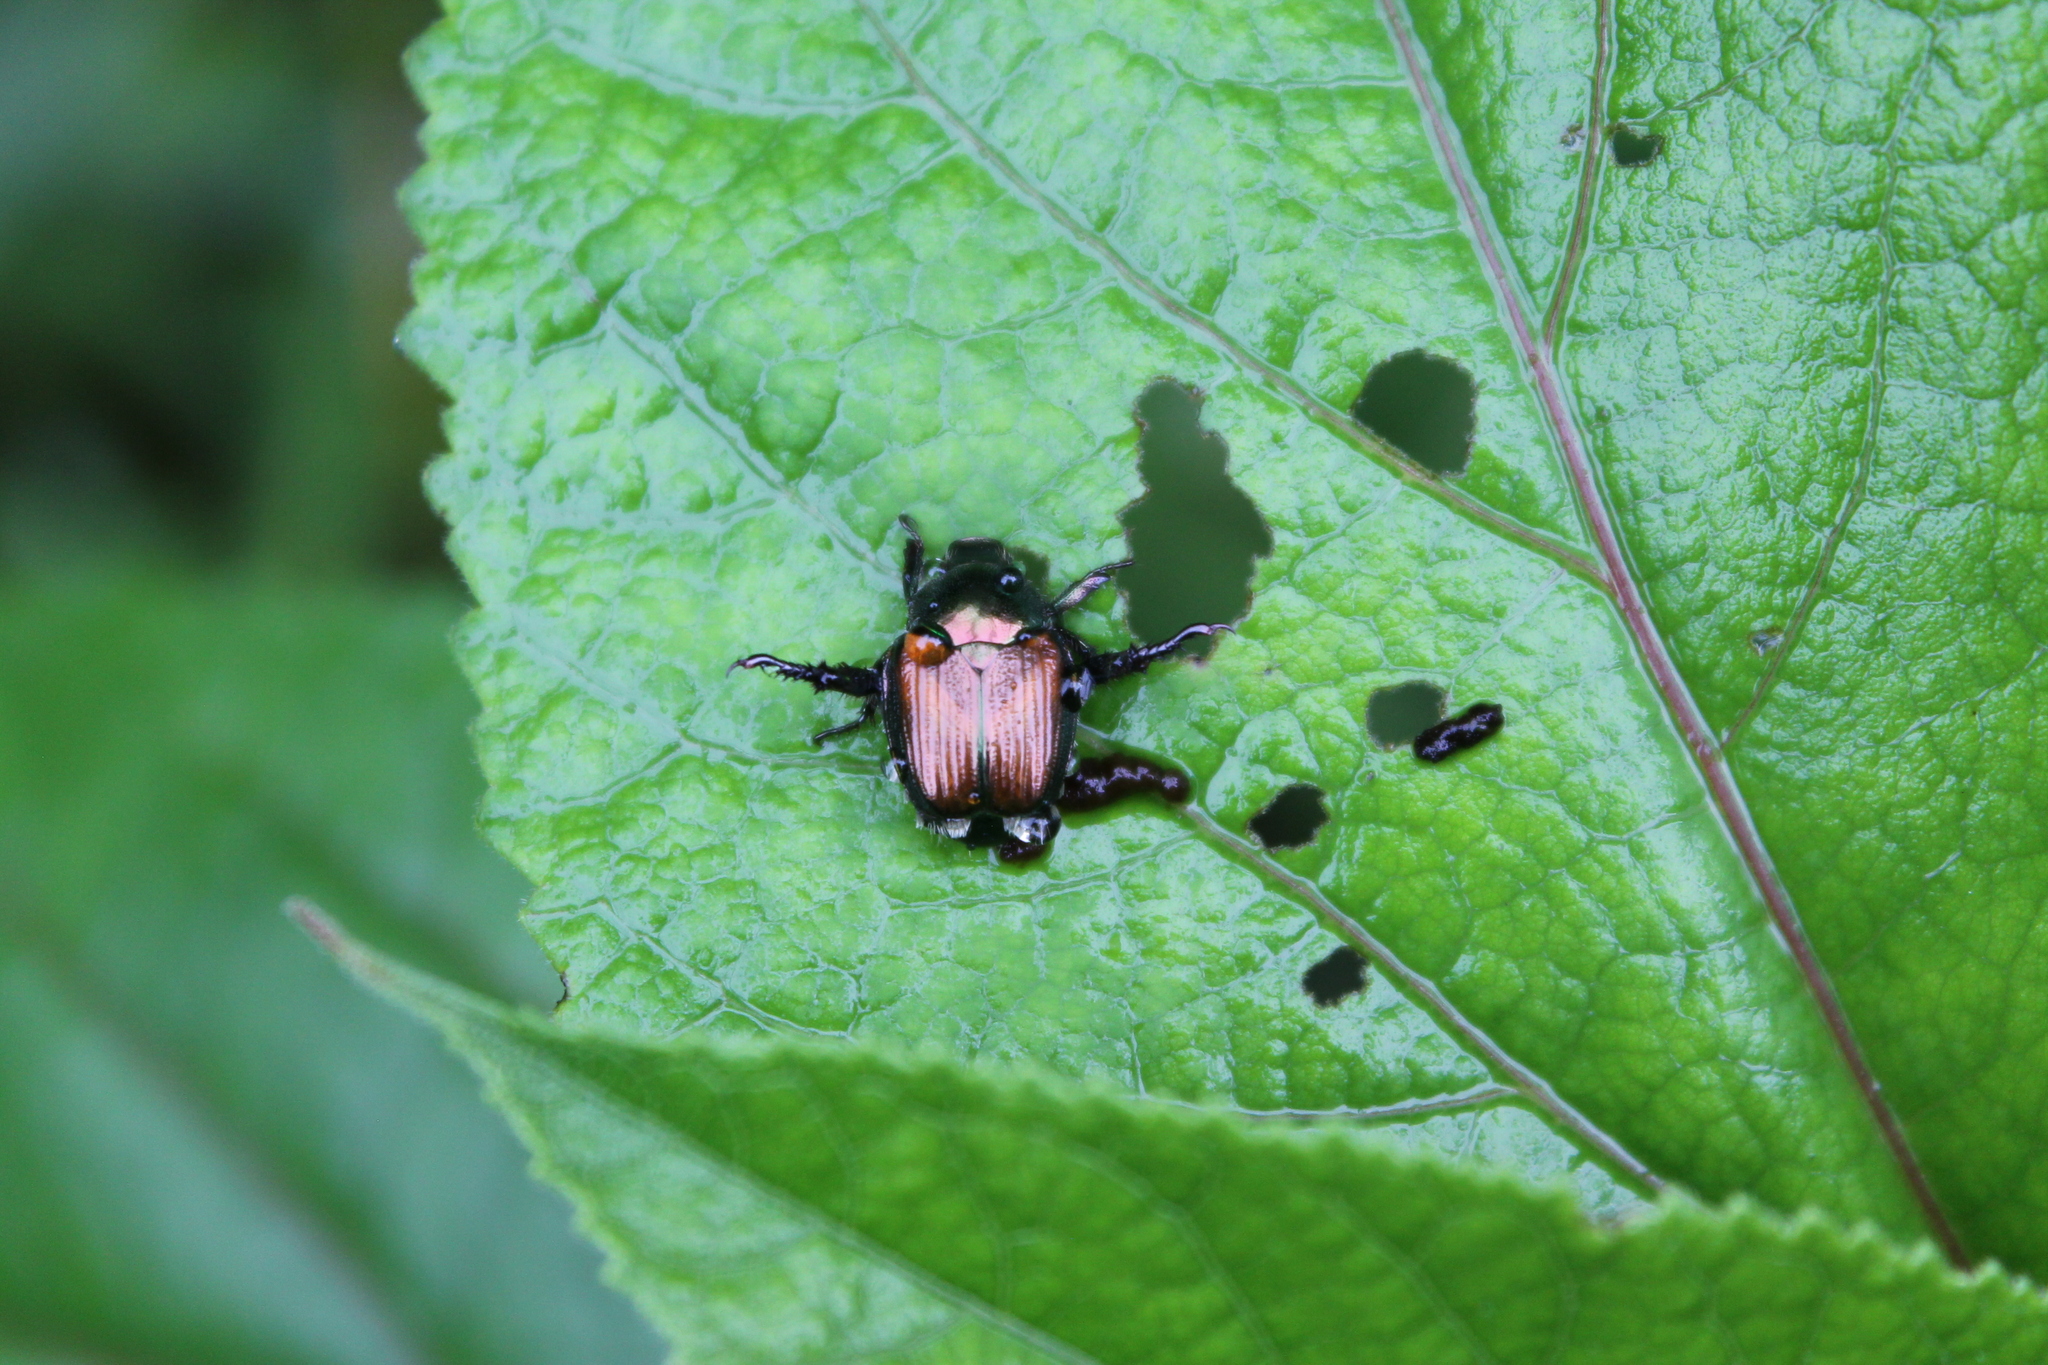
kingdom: Animalia
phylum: Arthropoda
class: Insecta
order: Coleoptera
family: Scarabaeidae
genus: Popillia
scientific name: Popillia japonica
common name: Japanese beetle
